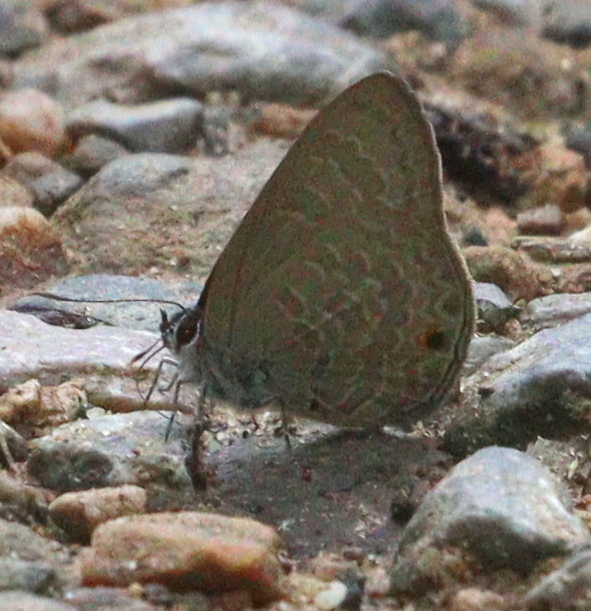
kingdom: Animalia
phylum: Arthropoda
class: Insecta
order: Lepidoptera
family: Lycaenidae
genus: Anthene
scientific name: Anthene emolus
